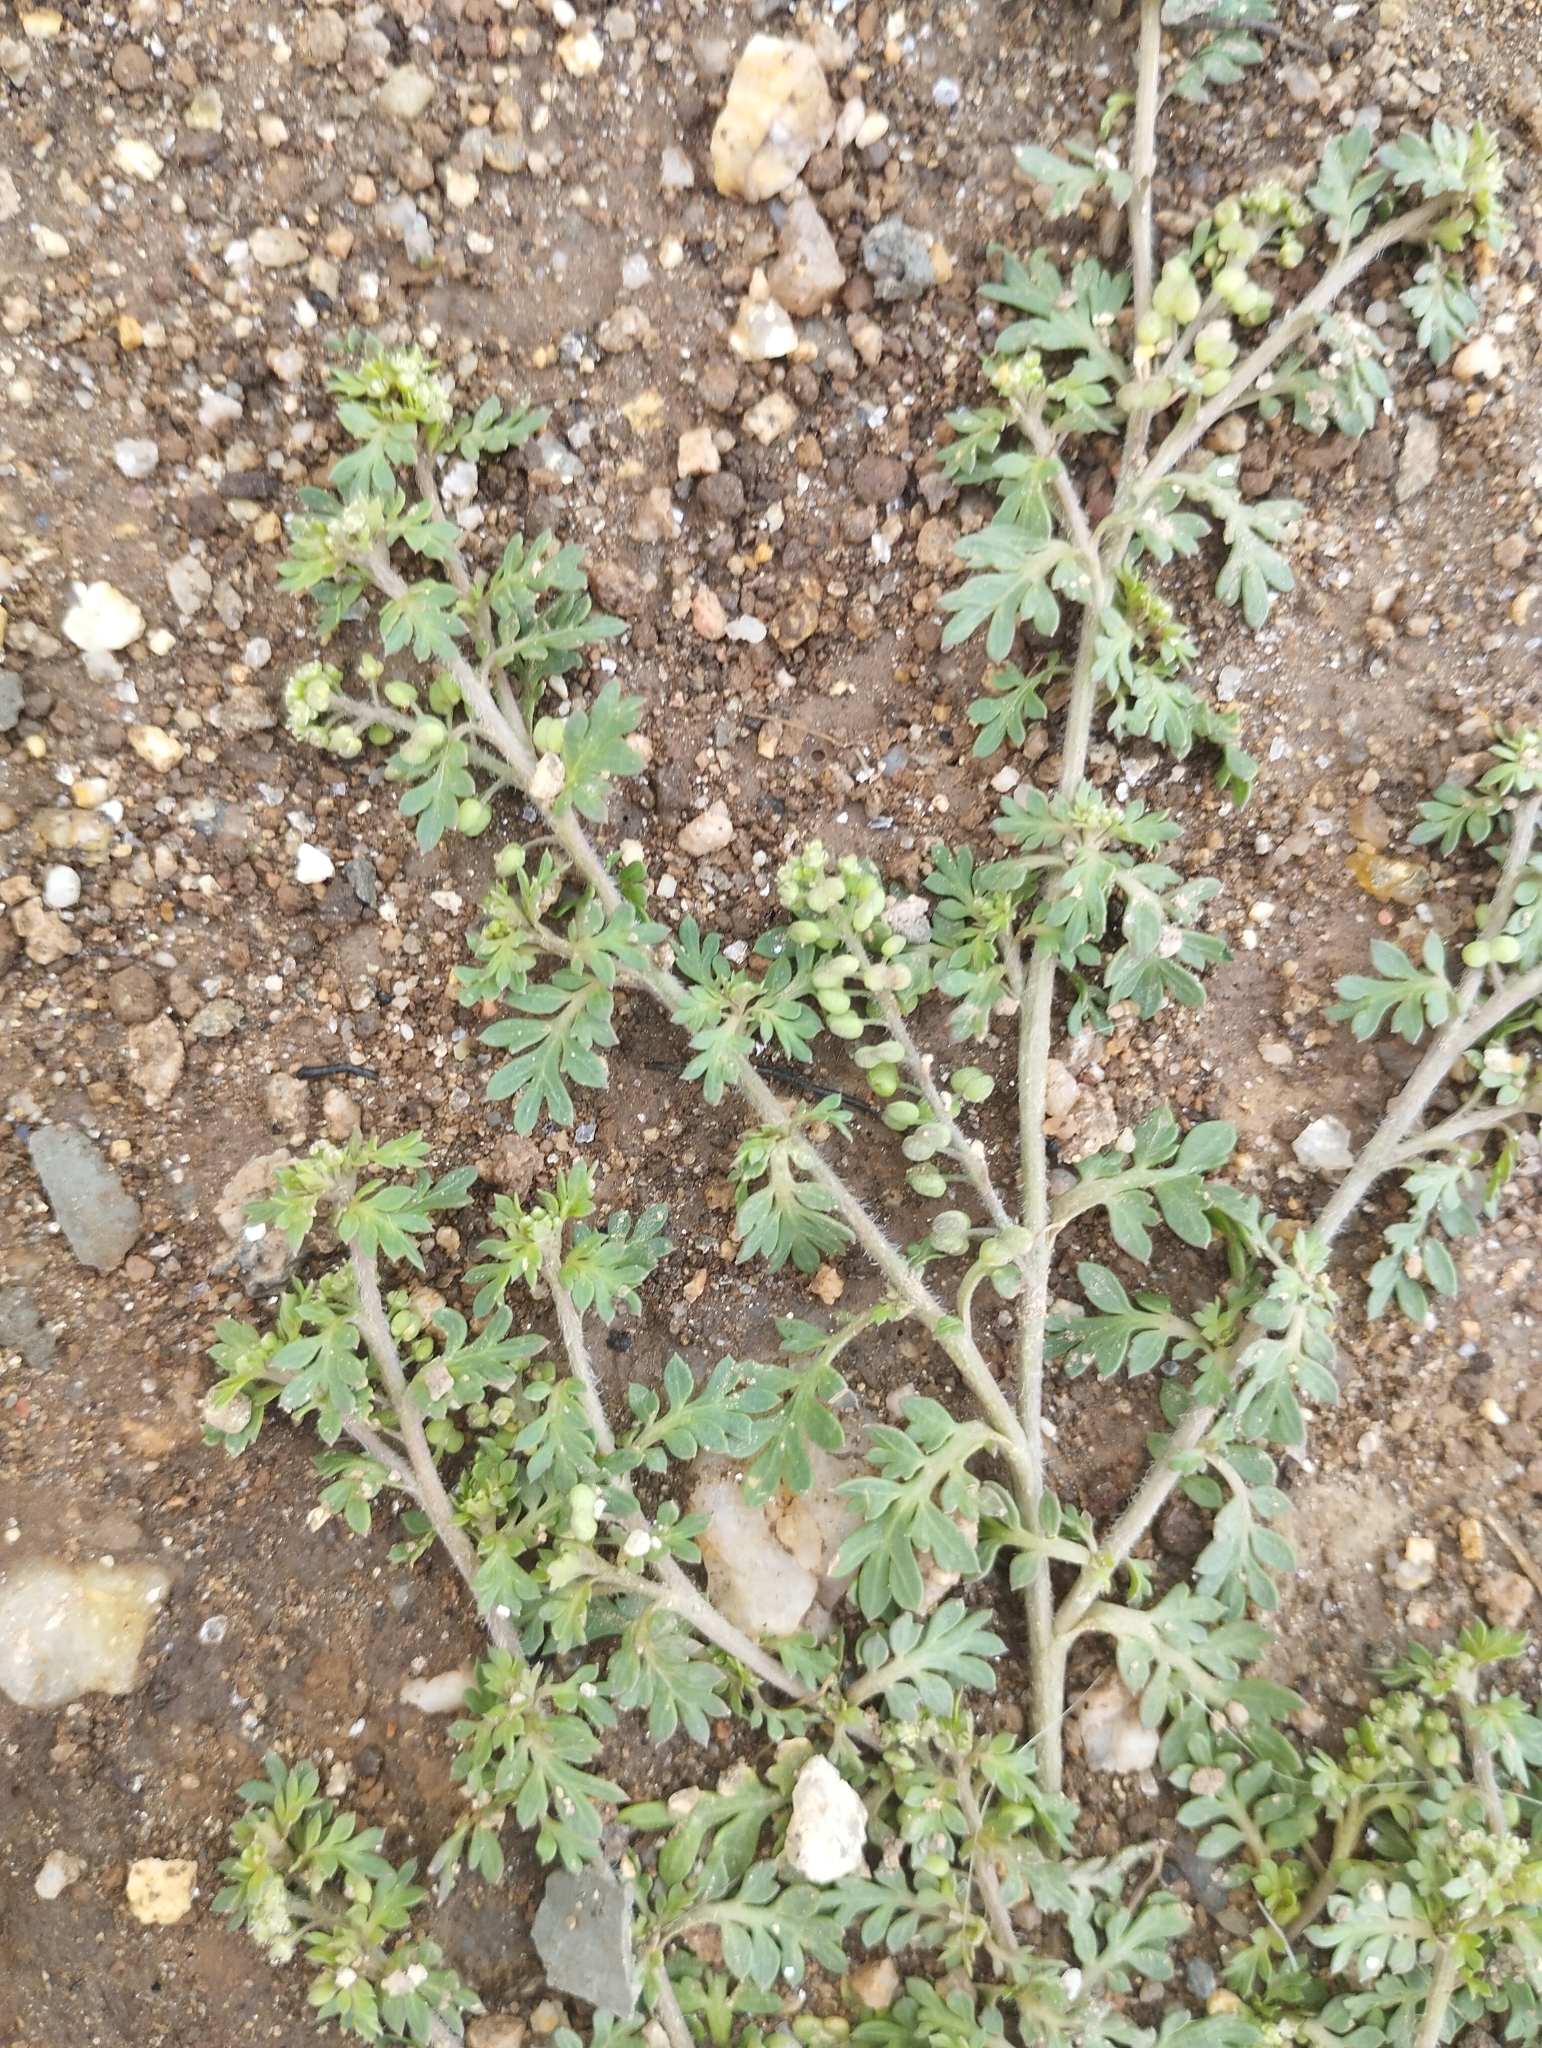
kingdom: Plantae
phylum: Tracheophyta
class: Magnoliopsida
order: Brassicales
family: Brassicaceae
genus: Lepidium
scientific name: Lepidium didymum
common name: Lesser swinecress
